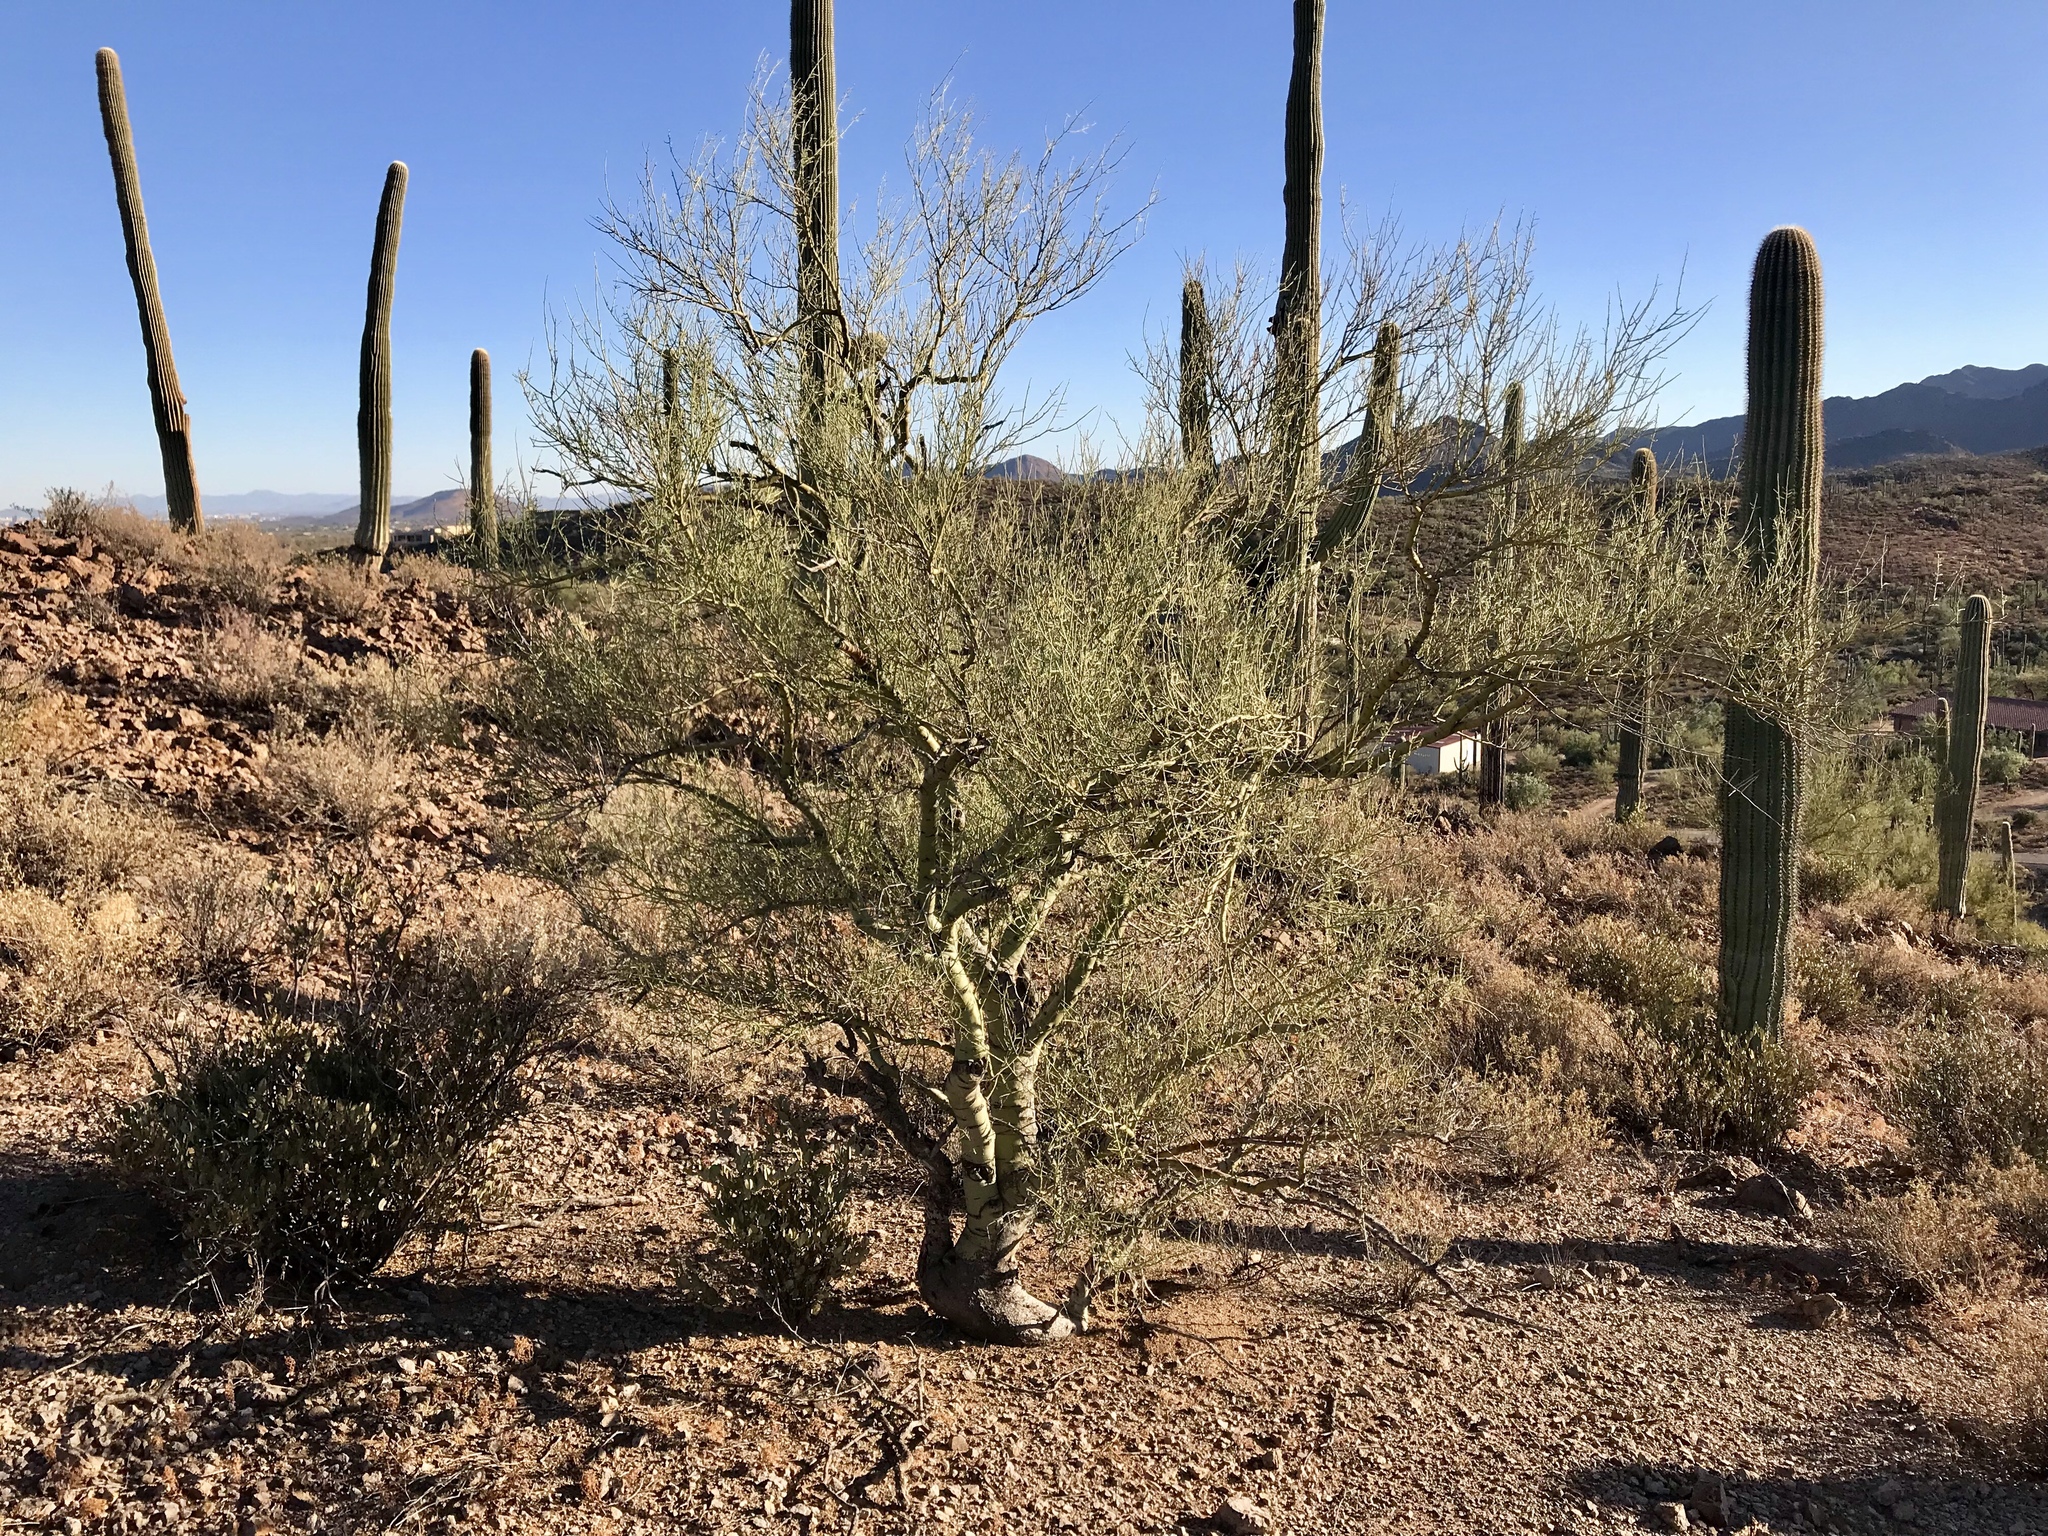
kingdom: Plantae
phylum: Tracheophyta
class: Magnoliopsida
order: Fabales
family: Fabaceae
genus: Parkinsonia
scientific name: Parkinsonia microphylla
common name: Yellow paloverde
